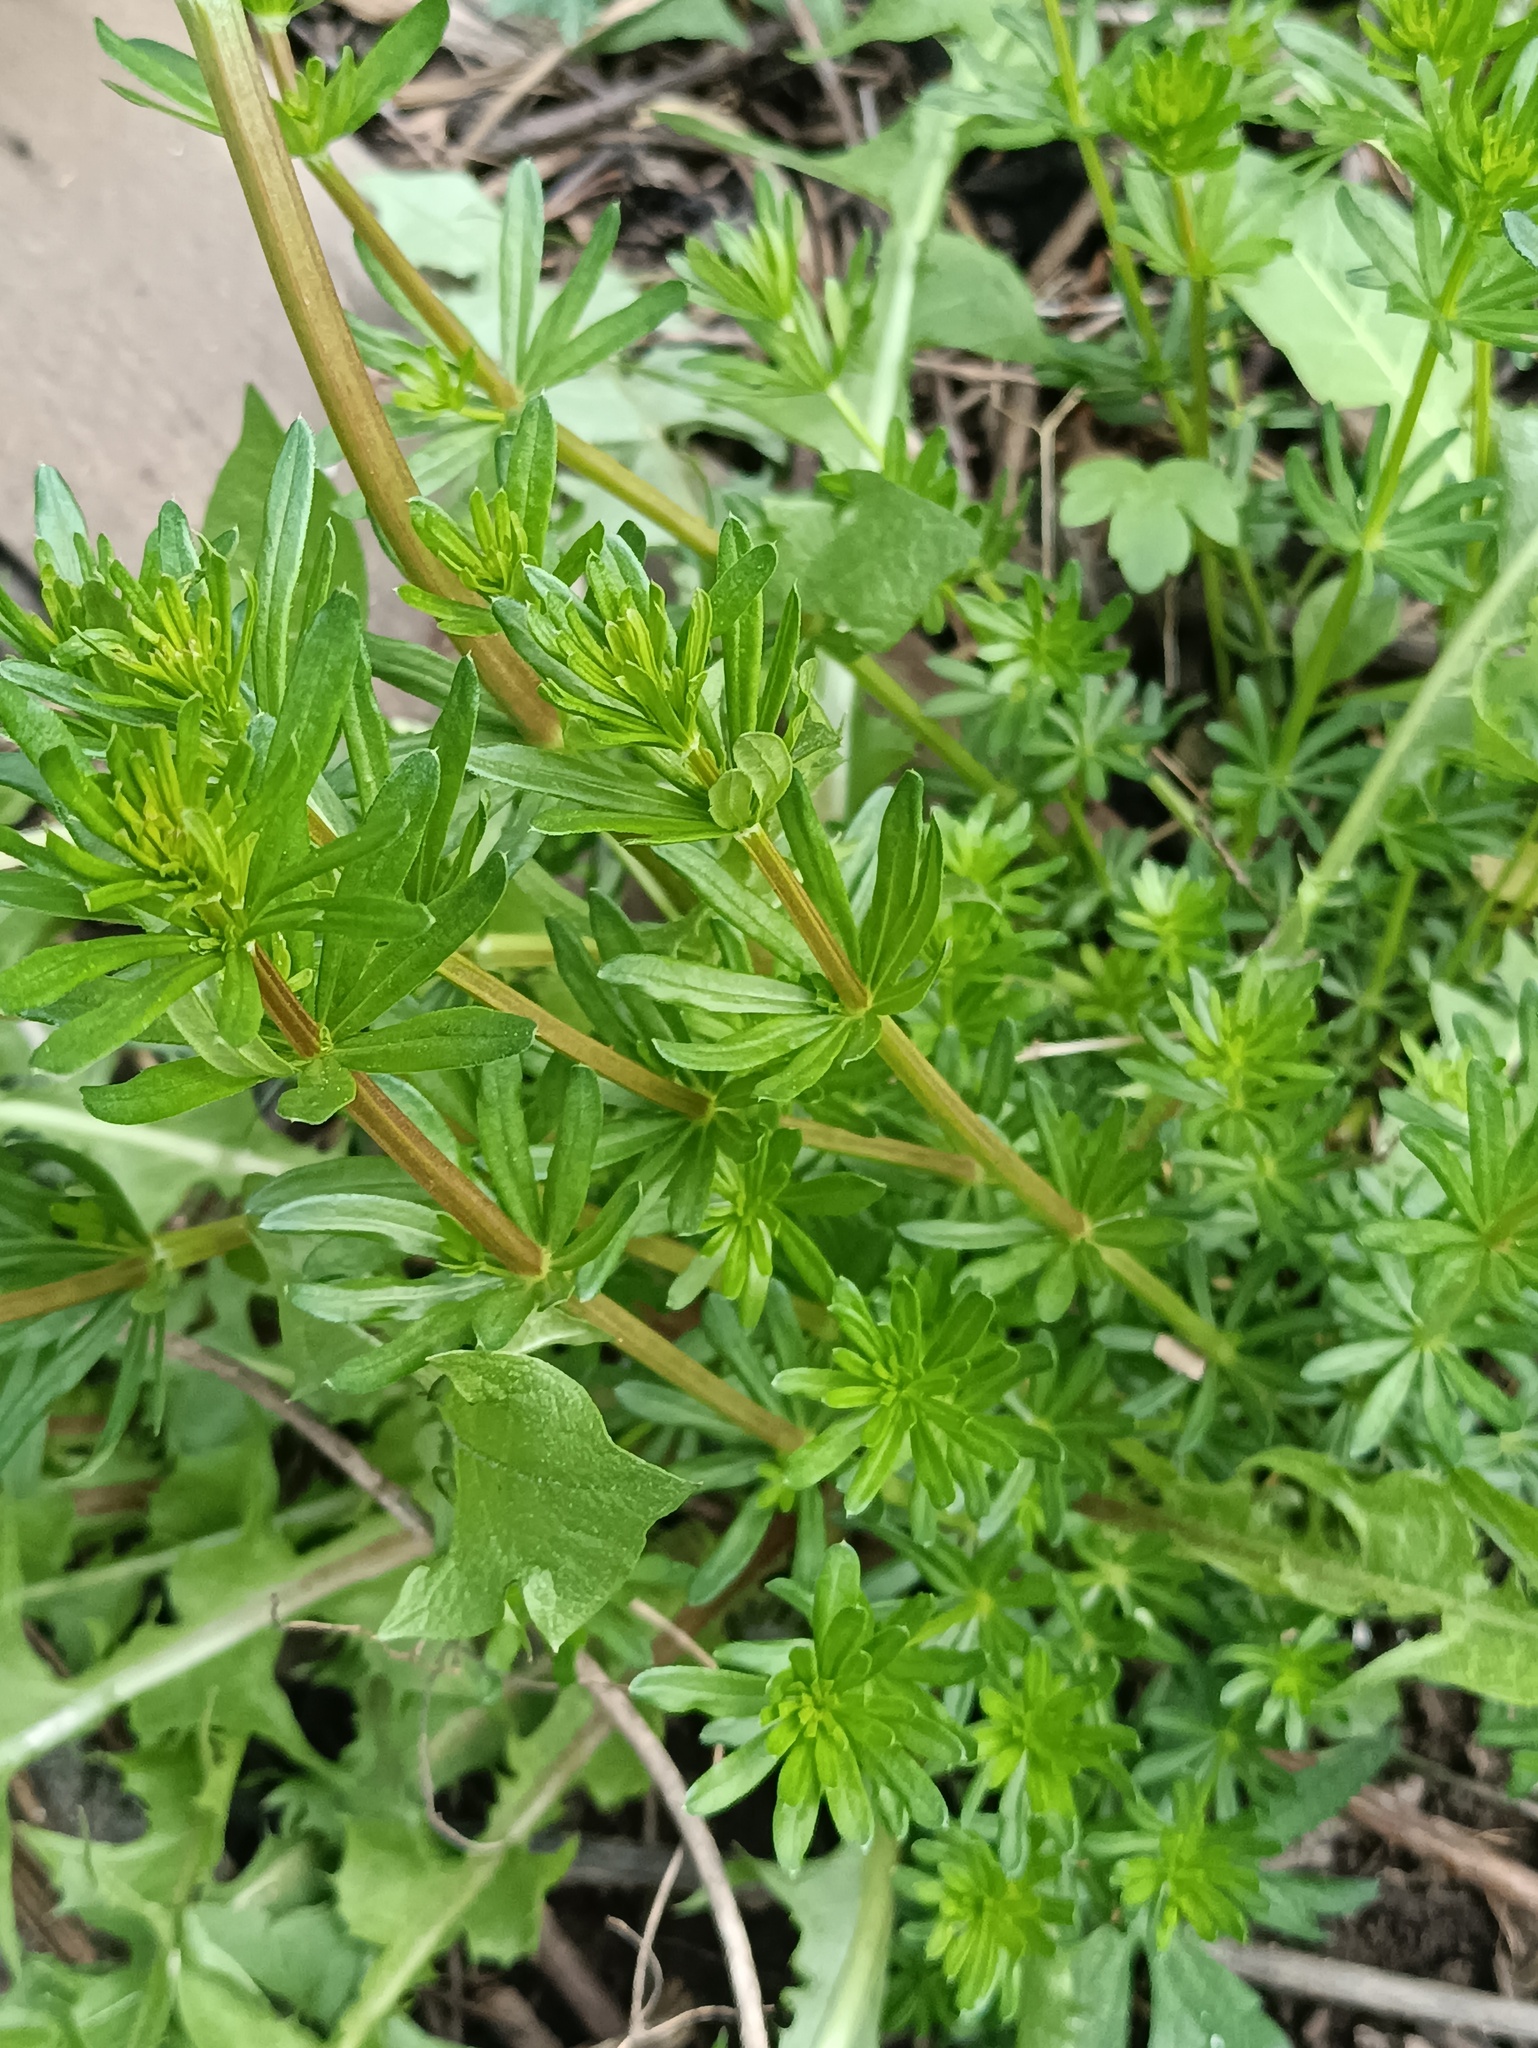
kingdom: Plantae
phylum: Tracheophyta
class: Magnoliopsida
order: Gentianales
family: Rubiaceae
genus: Galium
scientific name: Galium mollugo
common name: Hedge bedstraw
